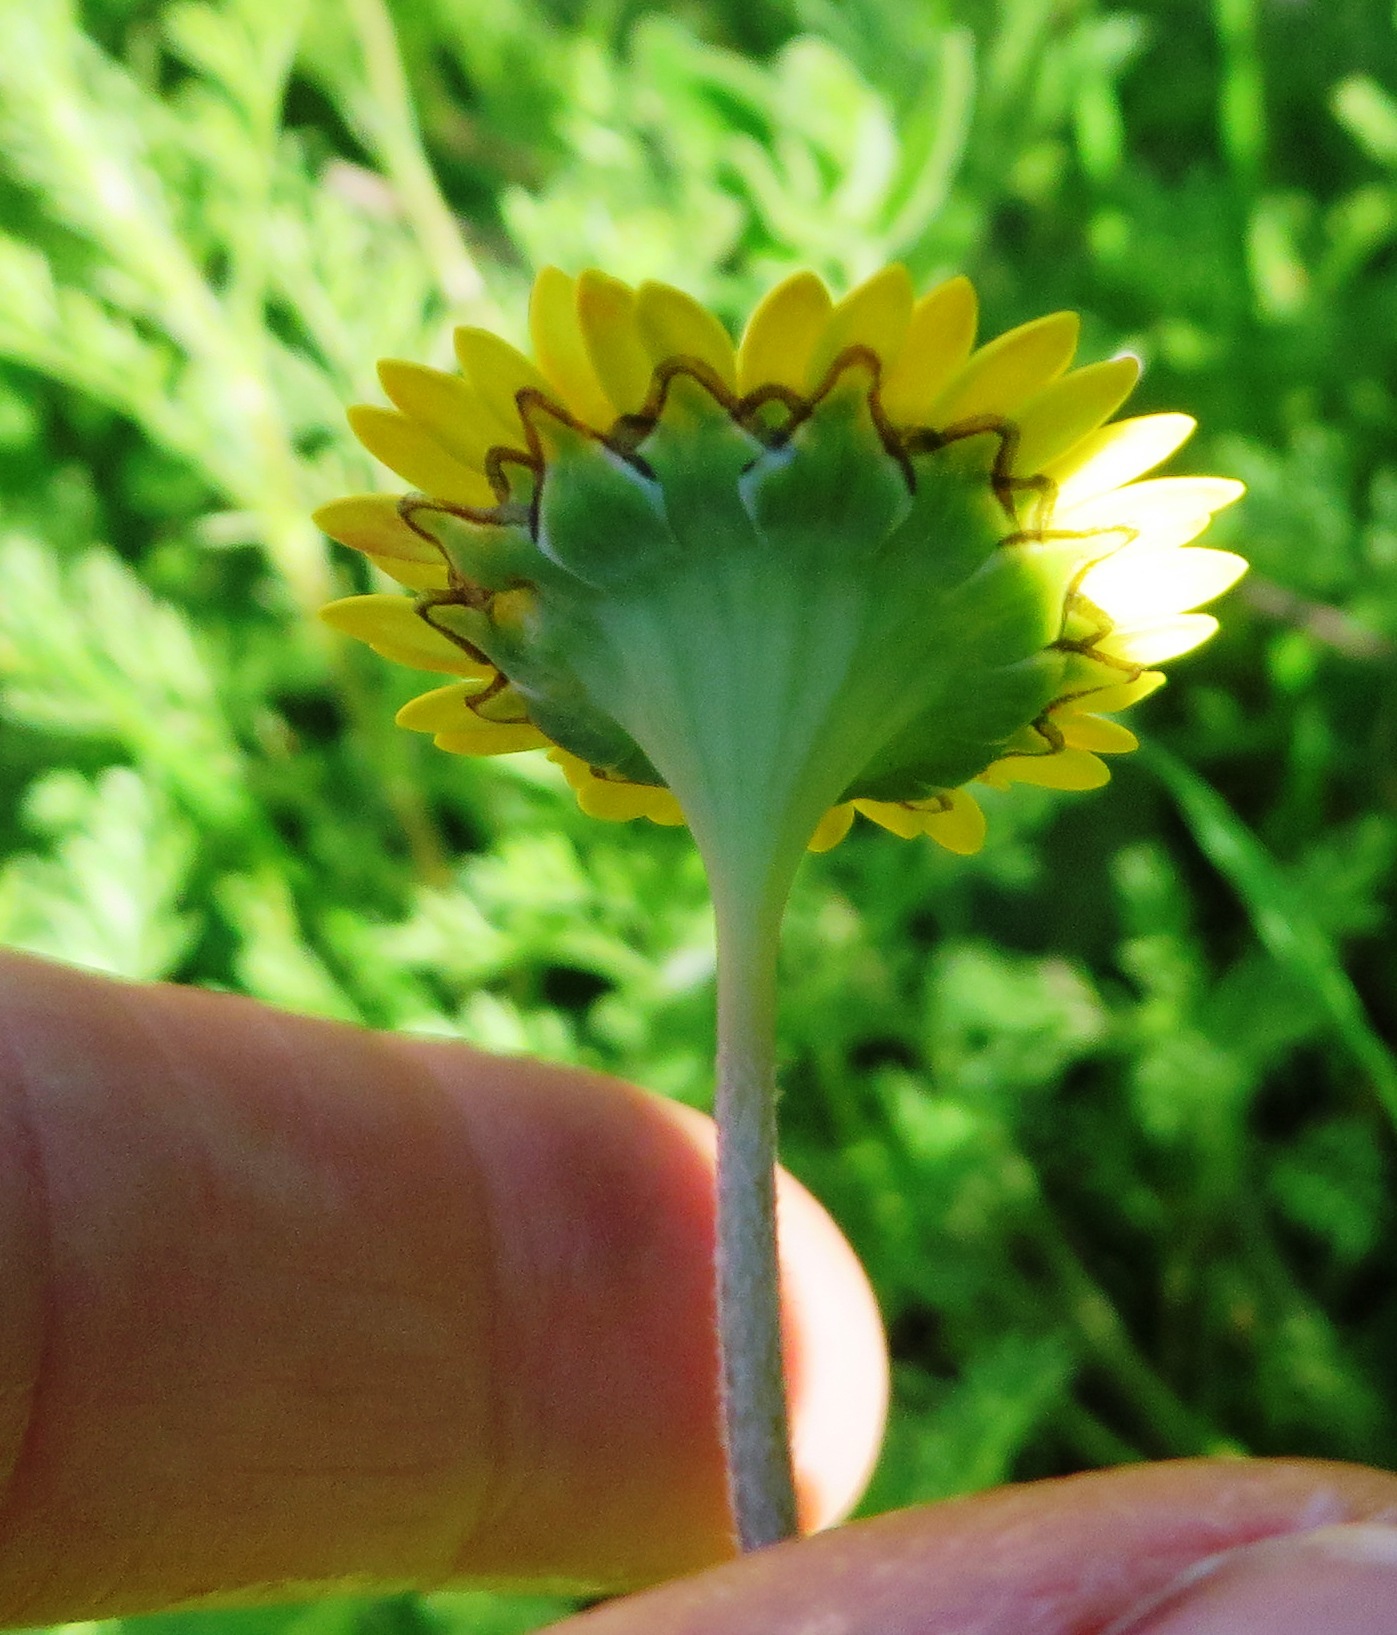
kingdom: Plantae
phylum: Tracheophyta
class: Magnoliopsida
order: Asterales
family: Asteraceae
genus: Cotula
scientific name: Cotula duckittiae
